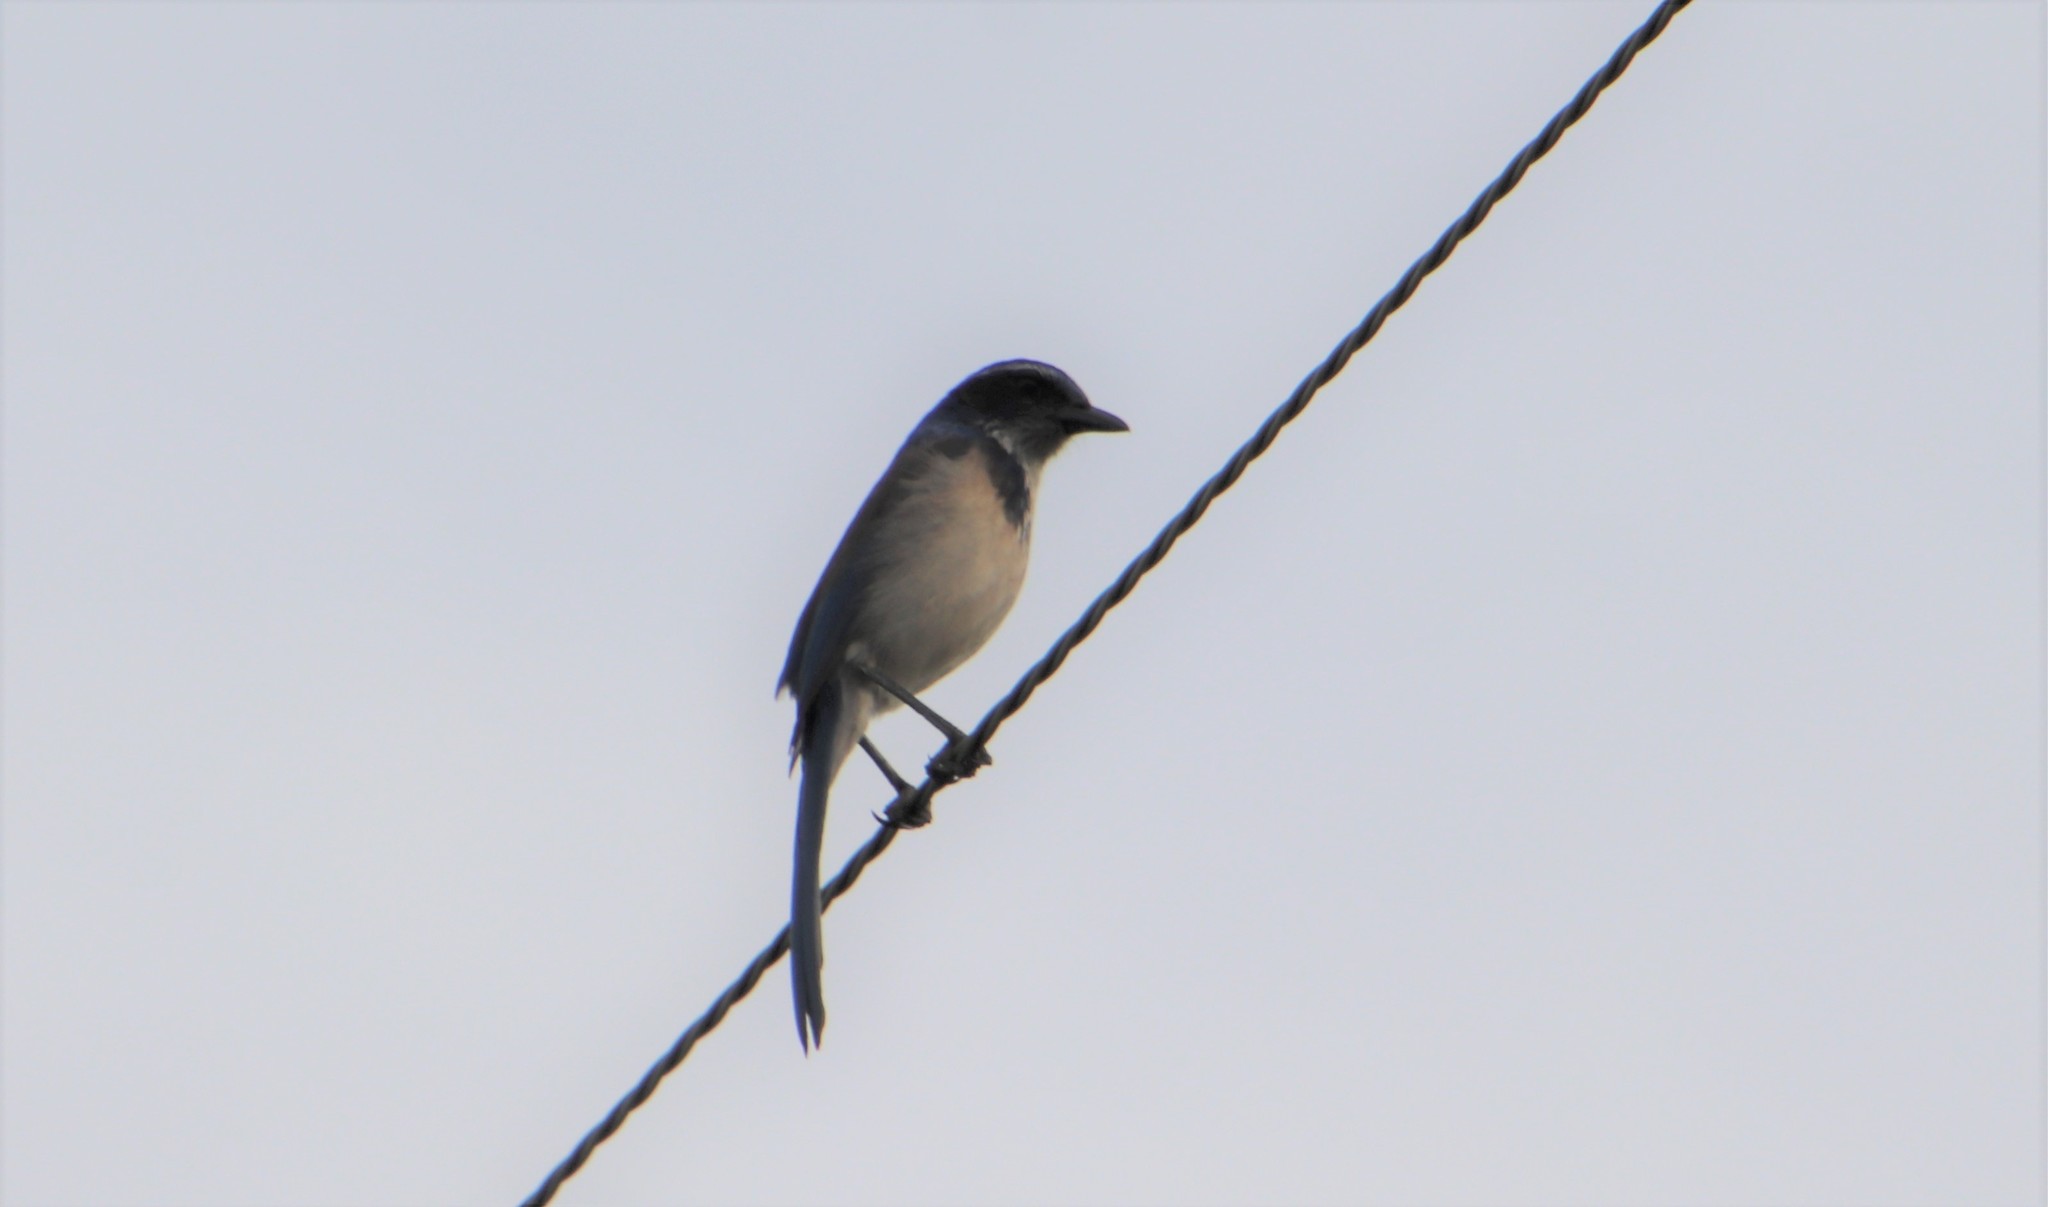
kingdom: Animalia
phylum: Chordata
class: Aves
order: Passeriformes
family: Corvidae
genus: Aphelocoma
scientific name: Aphelocoma californica
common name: California scrub-jay
